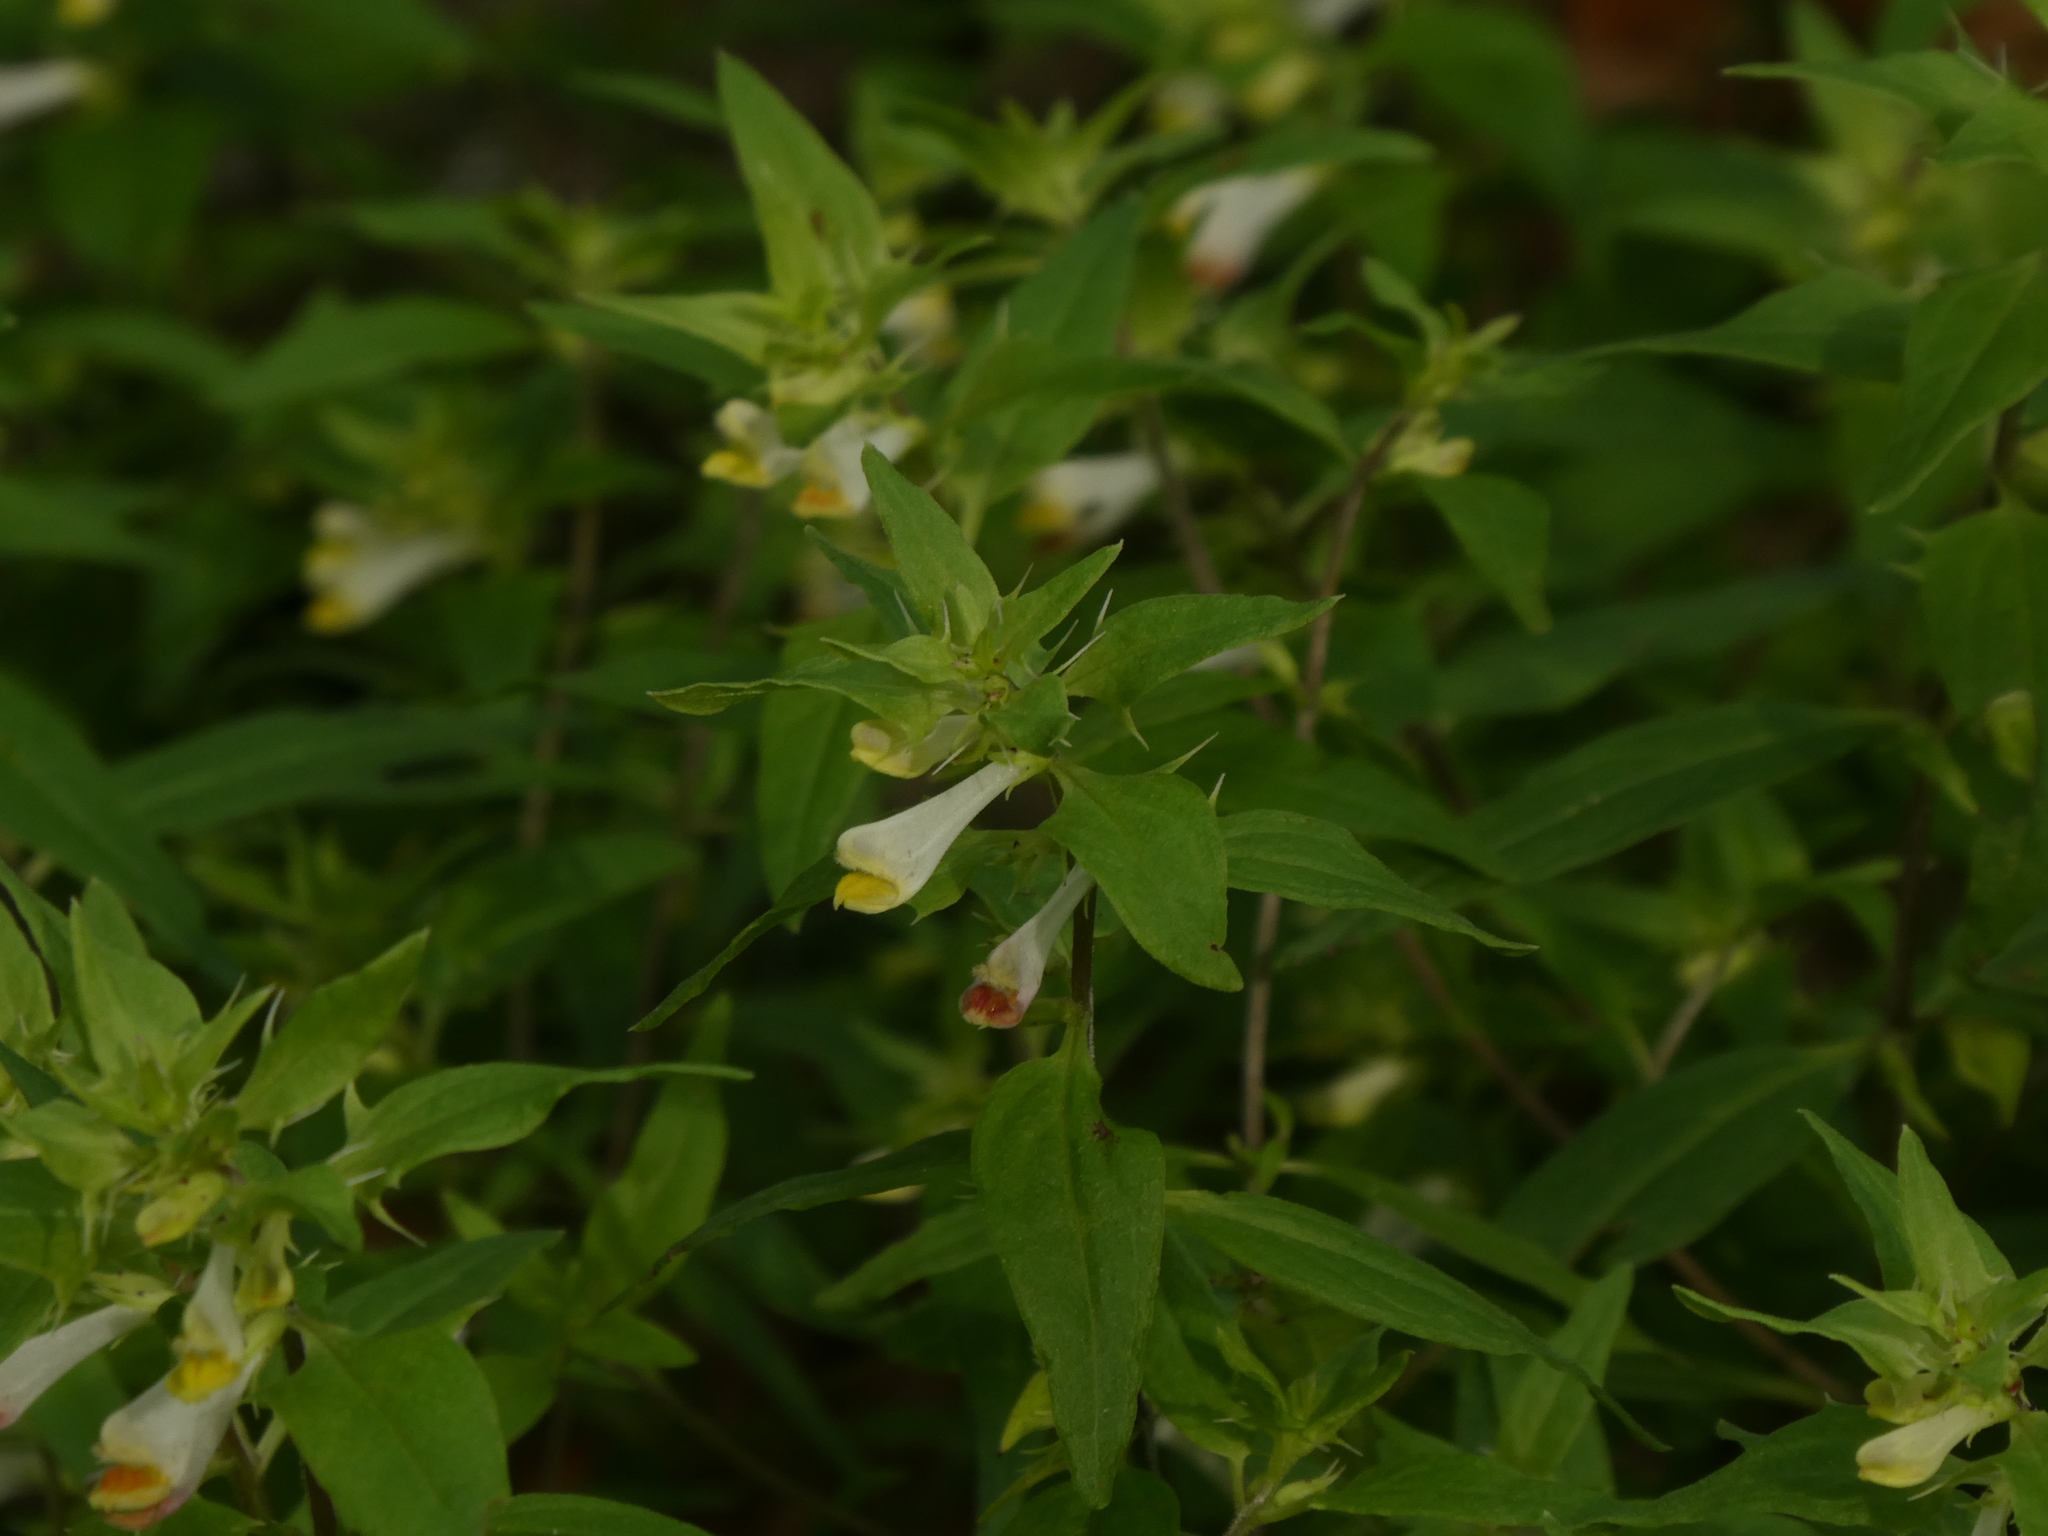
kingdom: Plantae
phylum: Tracheophyta
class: Magnoliopsida
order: Lamiales
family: Orobanchaceae
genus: Melampyrum
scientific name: Melampyrum lineare
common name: American cow-wheat
